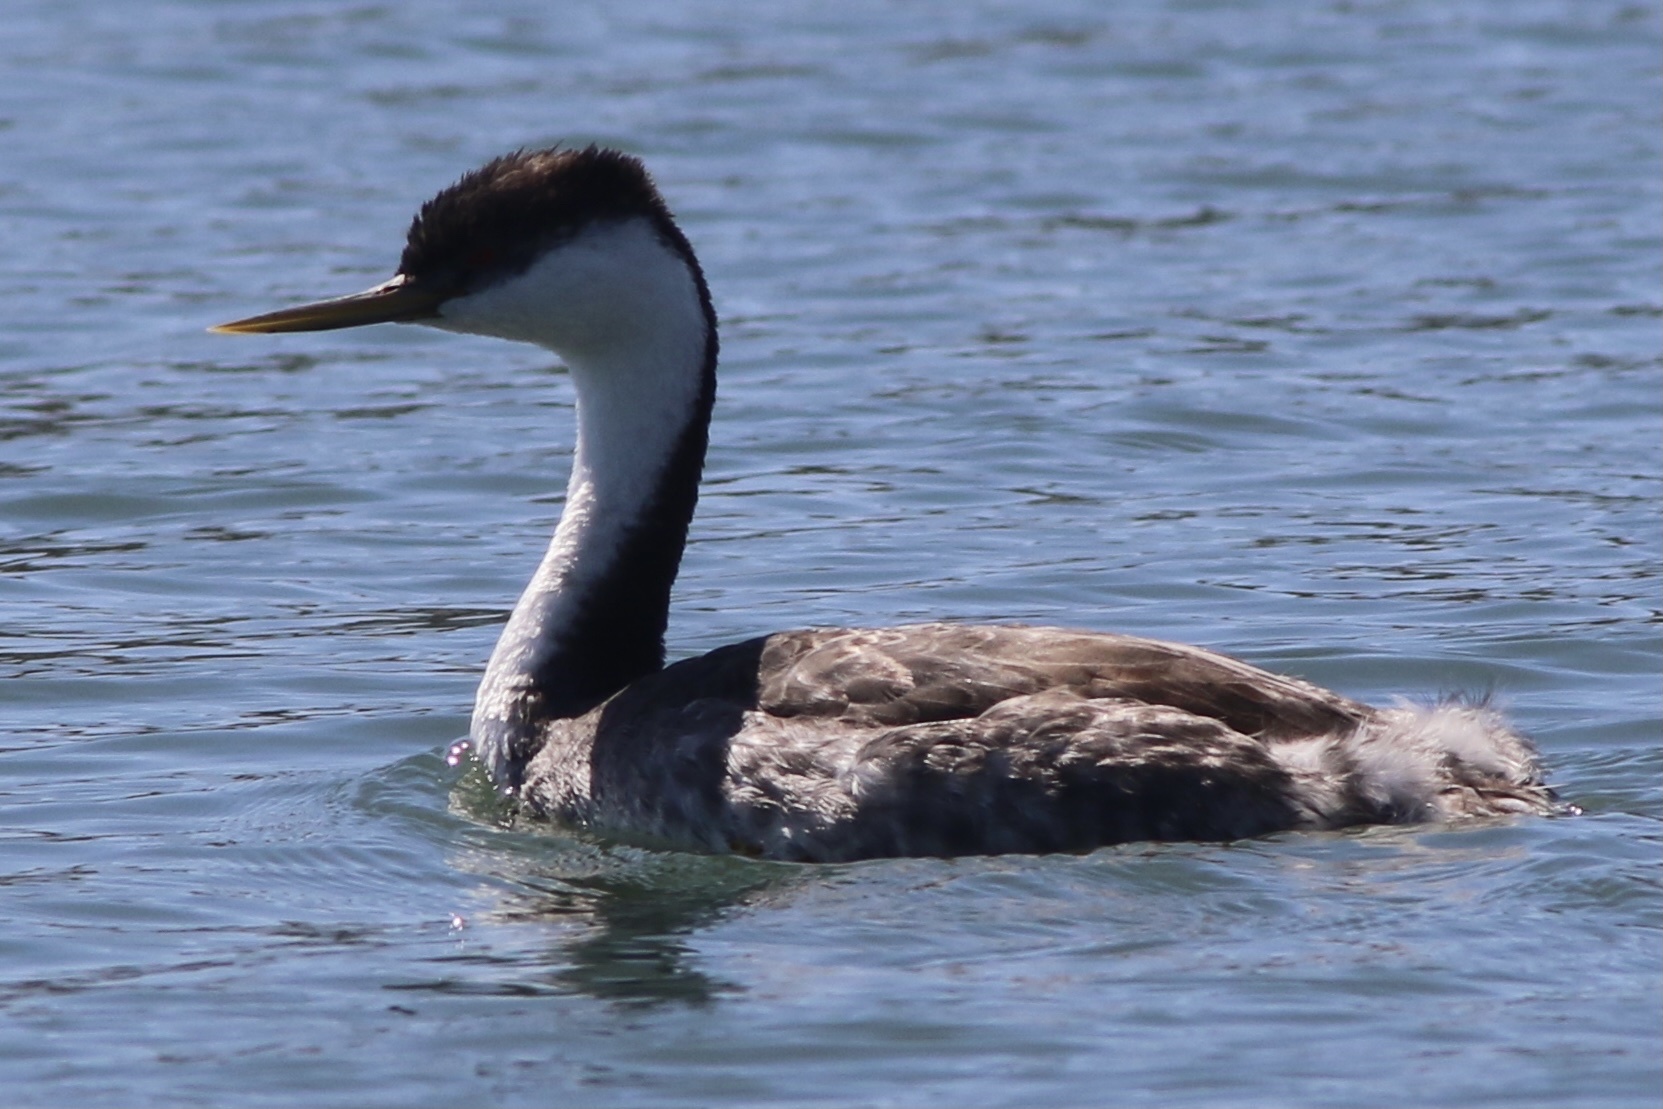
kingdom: Animalia
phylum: Chordata
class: Aves
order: Podicipediformes
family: Podicipedidae
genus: Aechmophorus
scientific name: Aechmophorus occidentalis
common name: Western grebe
